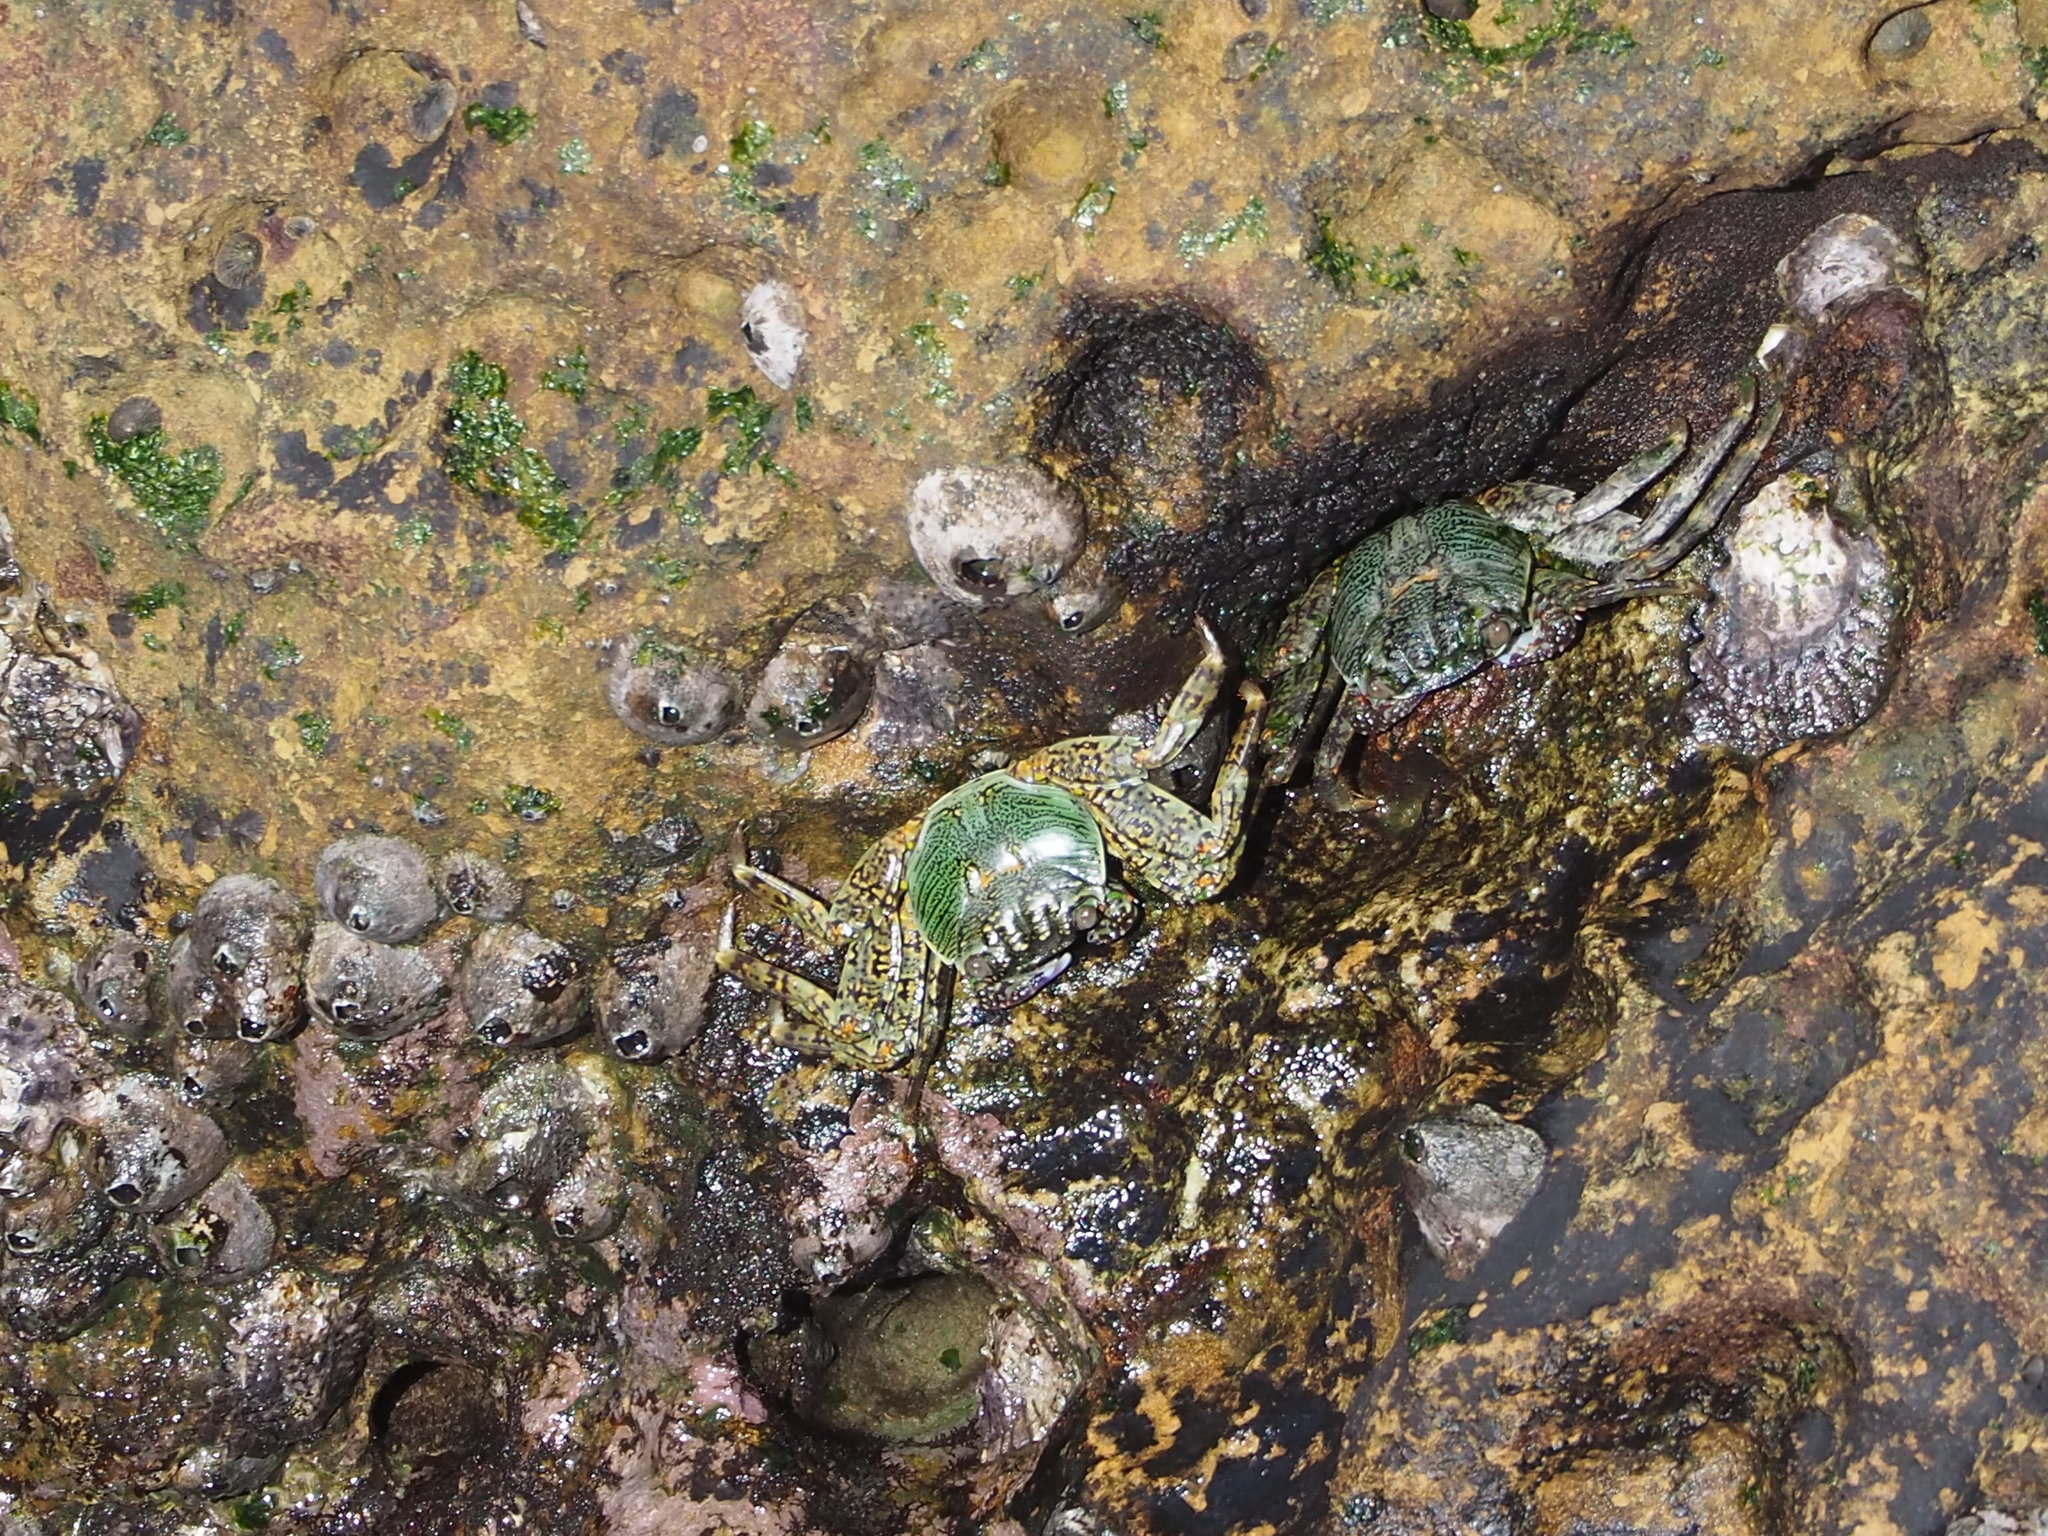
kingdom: Animalia
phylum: Arthropoda
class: Malacostraca
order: Decapoda
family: Grapsidae
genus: Grapsus
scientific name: Grapsus albolineatus
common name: Mottled lightfoot crab
